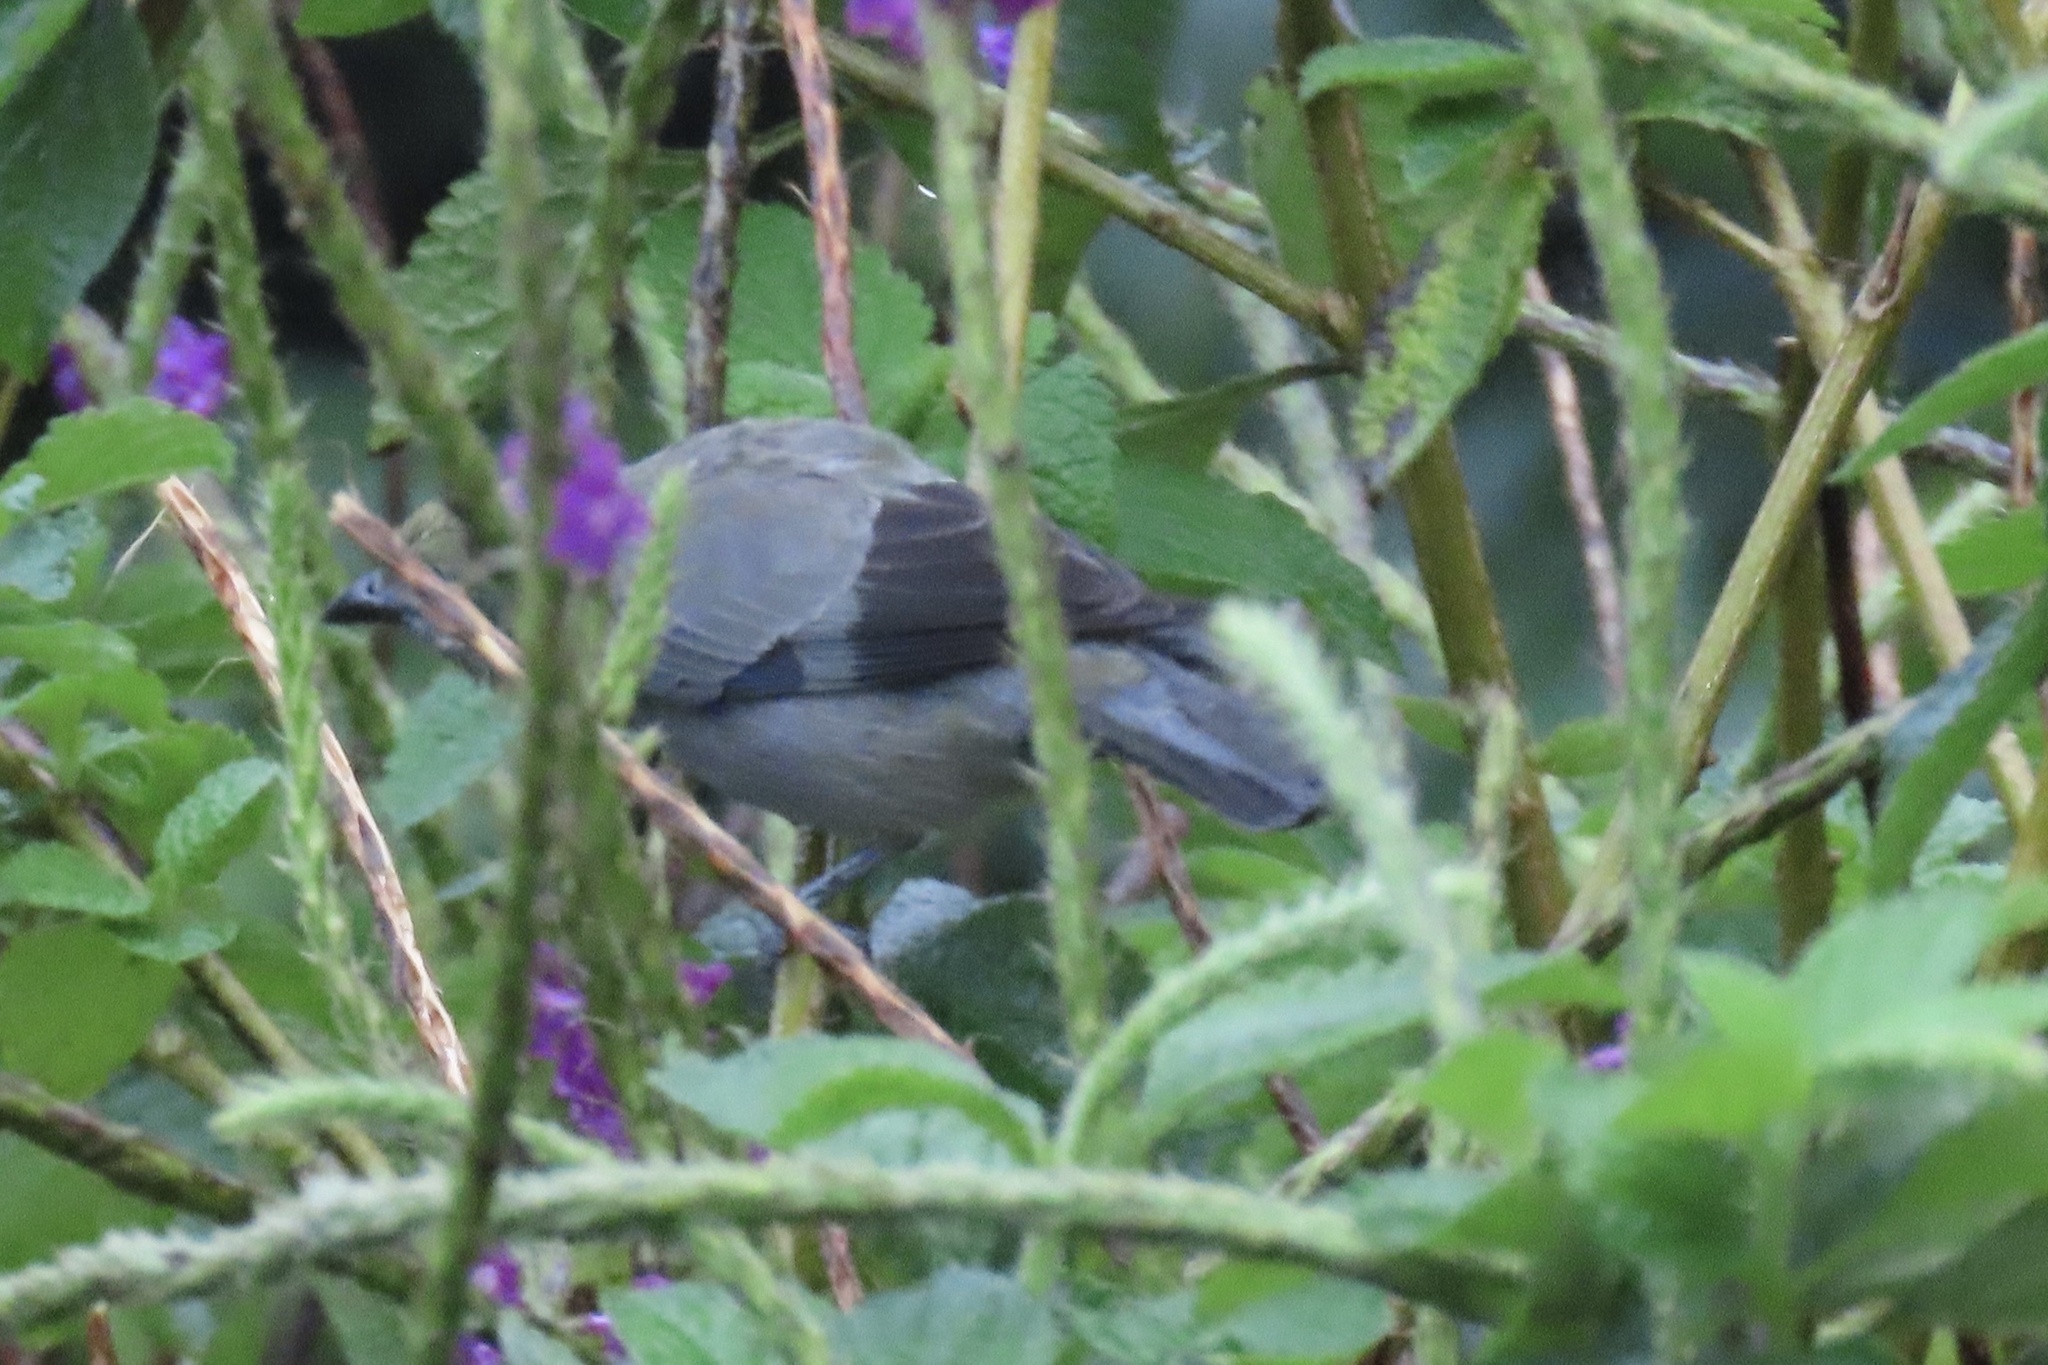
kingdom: Animalia
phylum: Chordata
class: Aves
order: Passeriformes
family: Thraupidae
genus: Thraupis
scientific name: Thraupis palmarum
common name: Palm tanager
